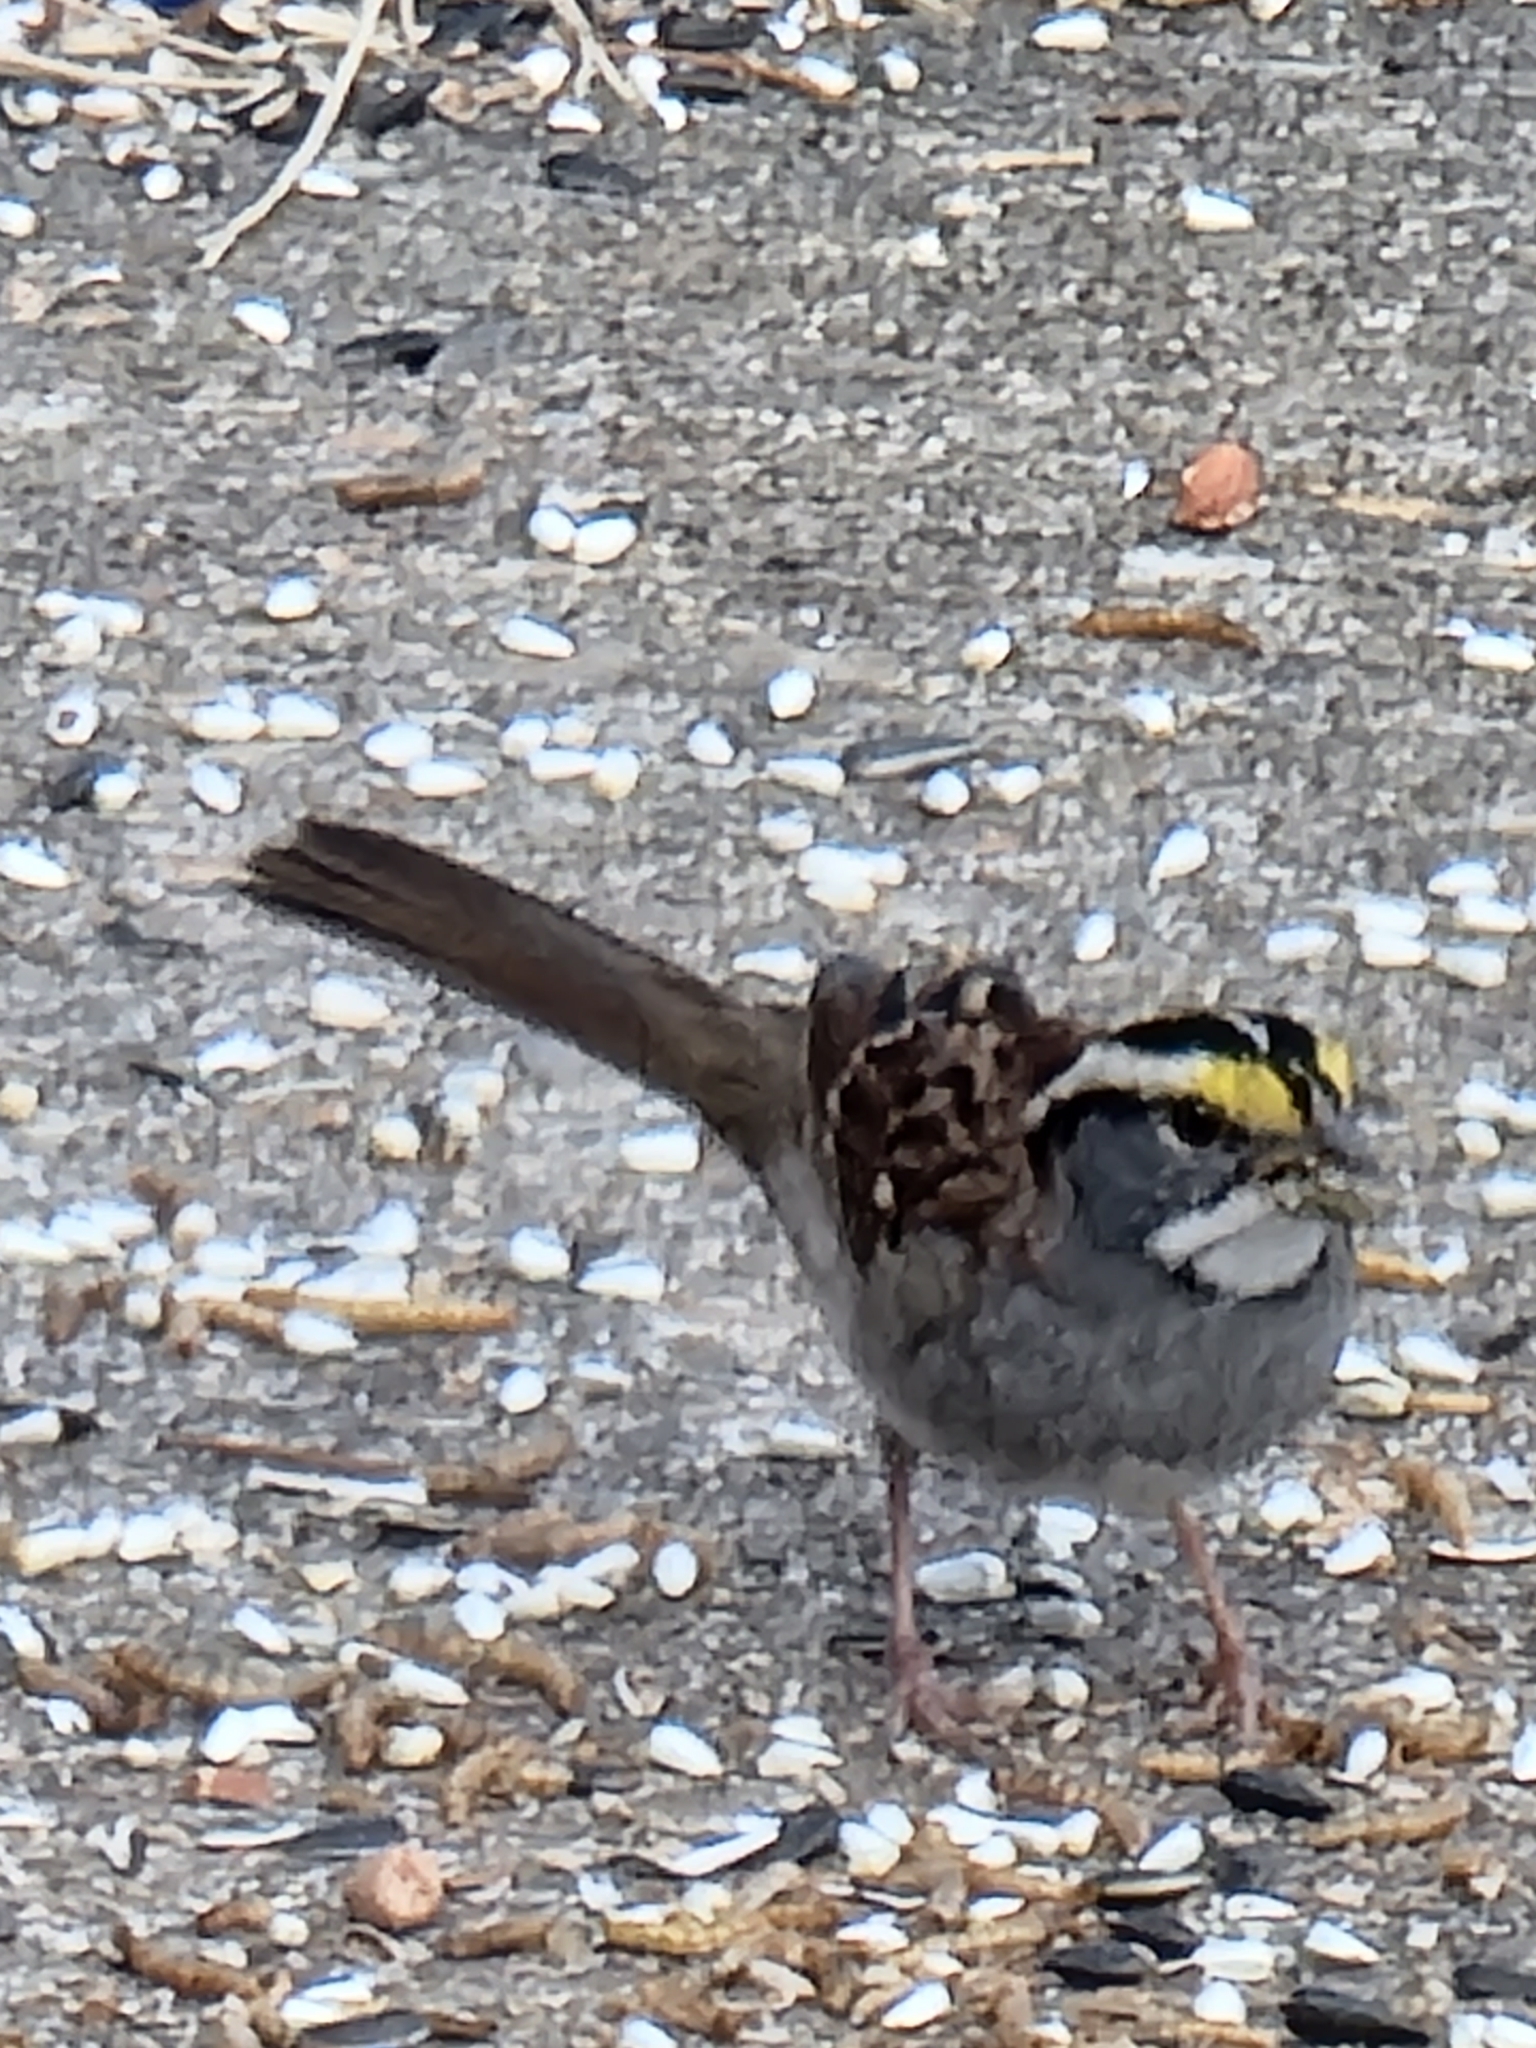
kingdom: Animalia
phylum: Chordata
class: Aves
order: Passeriformes
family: Passerellidae
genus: Zonotrichia
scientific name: Zonotrichia albicollis
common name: White-throated sparrow
